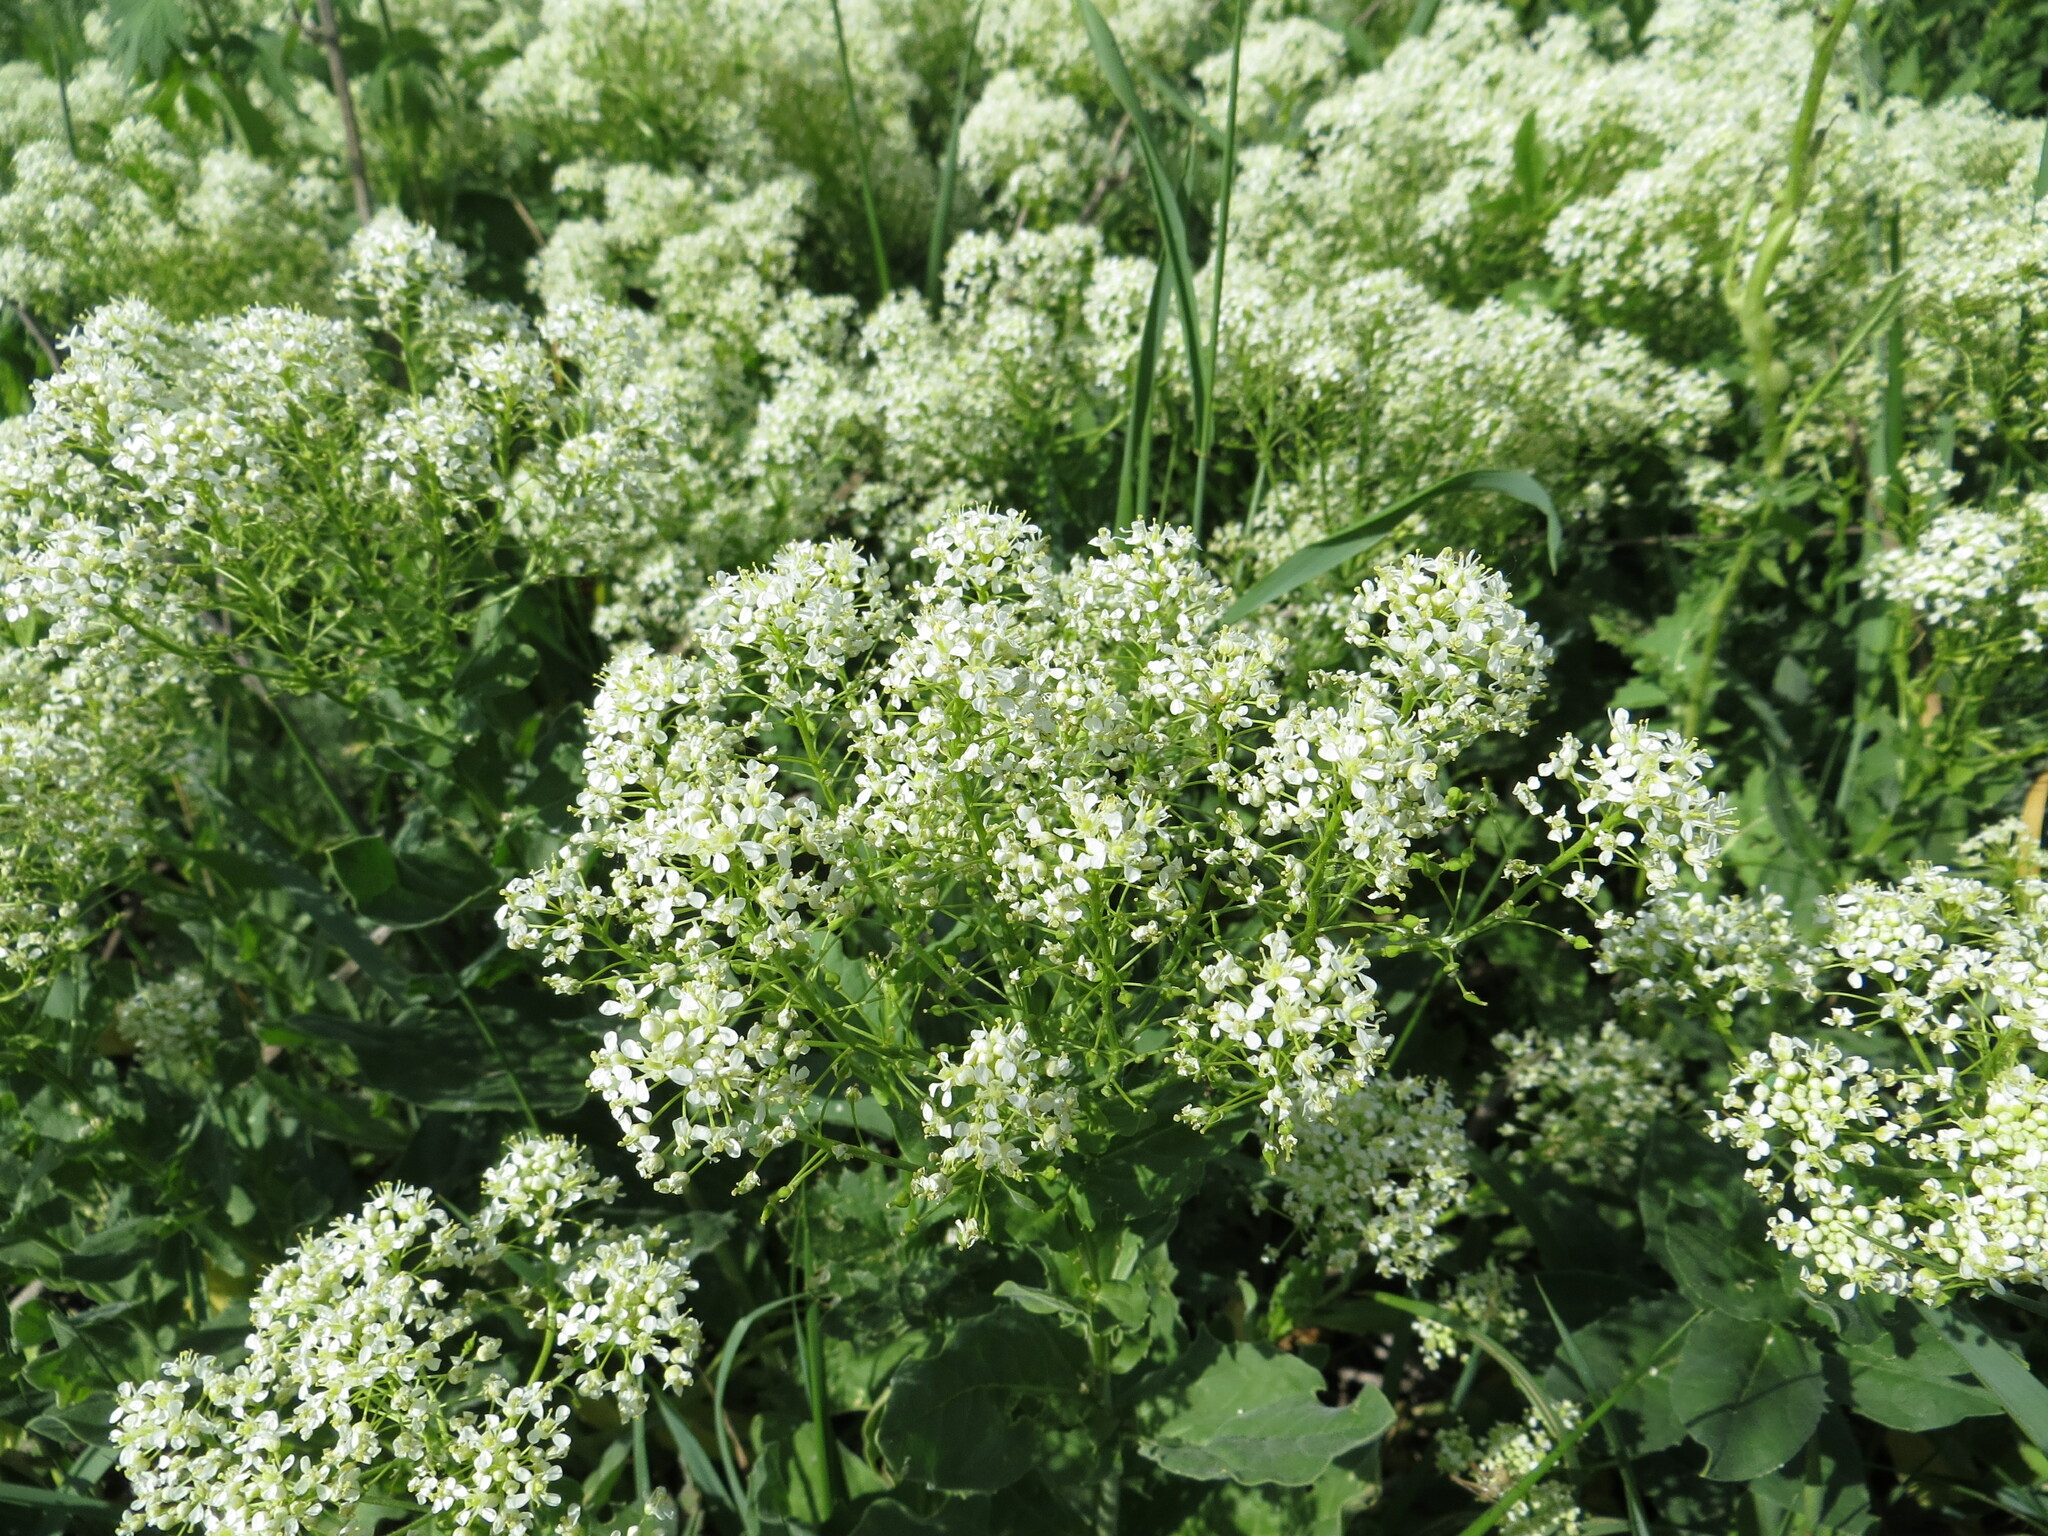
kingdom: Plantae
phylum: Tracheophyta
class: Magnoliopsida
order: Brassicales
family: Brassicaceae
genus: Lepidium
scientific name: Lepidium draba
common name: Hoary cress
